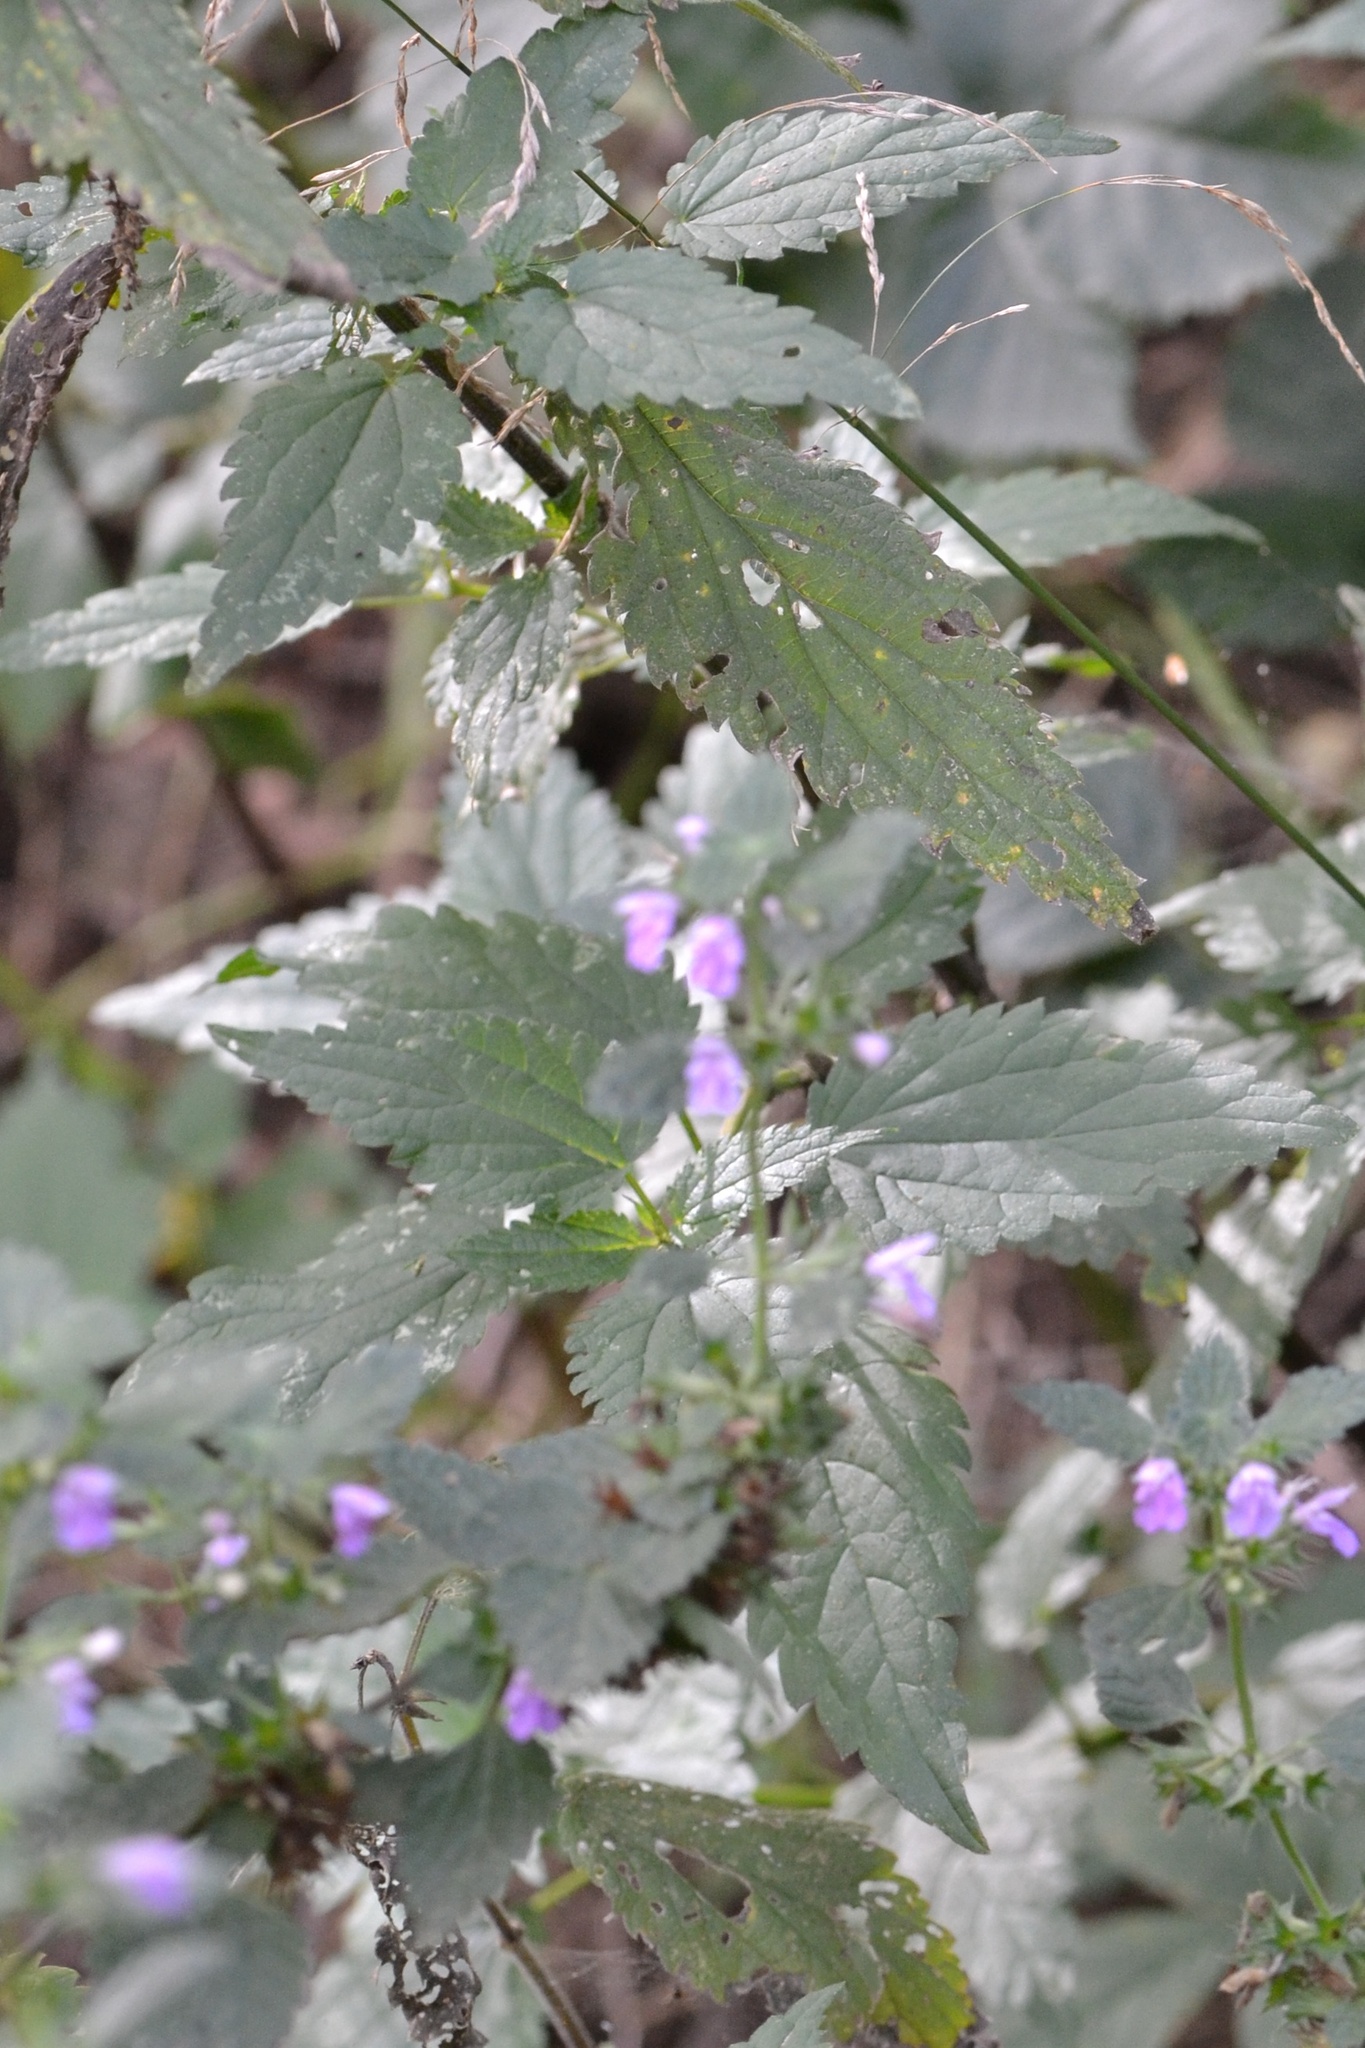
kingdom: Plantae
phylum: Tracheophyta
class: Magnoliopsida
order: Lamiales
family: Lamiaceae
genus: Ballota
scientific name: Ballota nigra
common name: Black horehound
